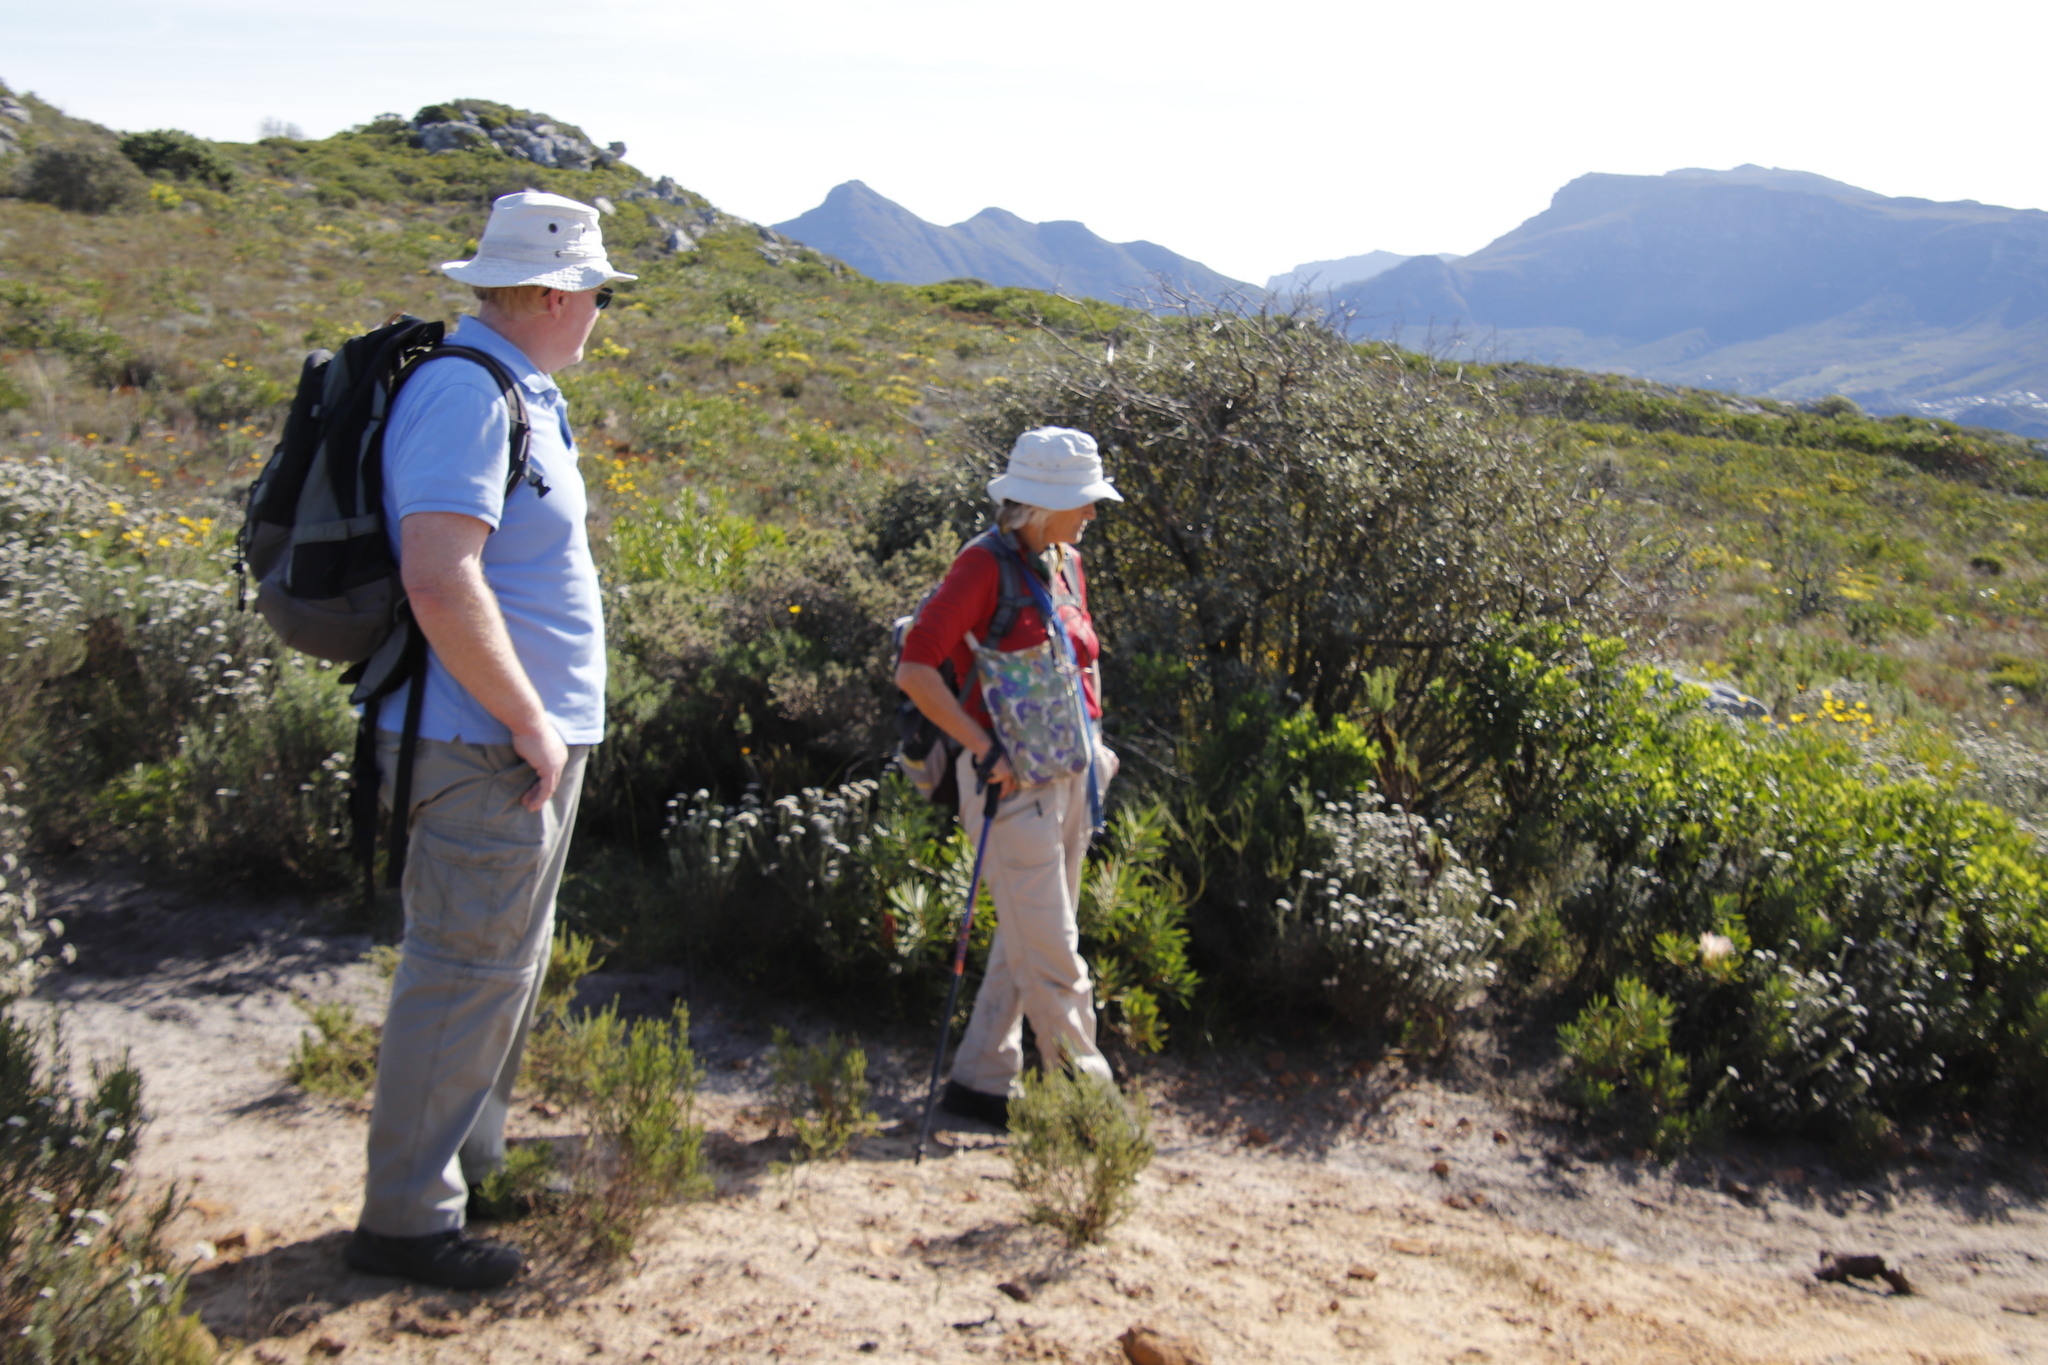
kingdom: Plantae
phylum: Tracheophyta
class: Magnoliopsida
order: Asterales
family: Asteraceae
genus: Tarchonanthus
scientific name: Tarchonanthus littoralis
